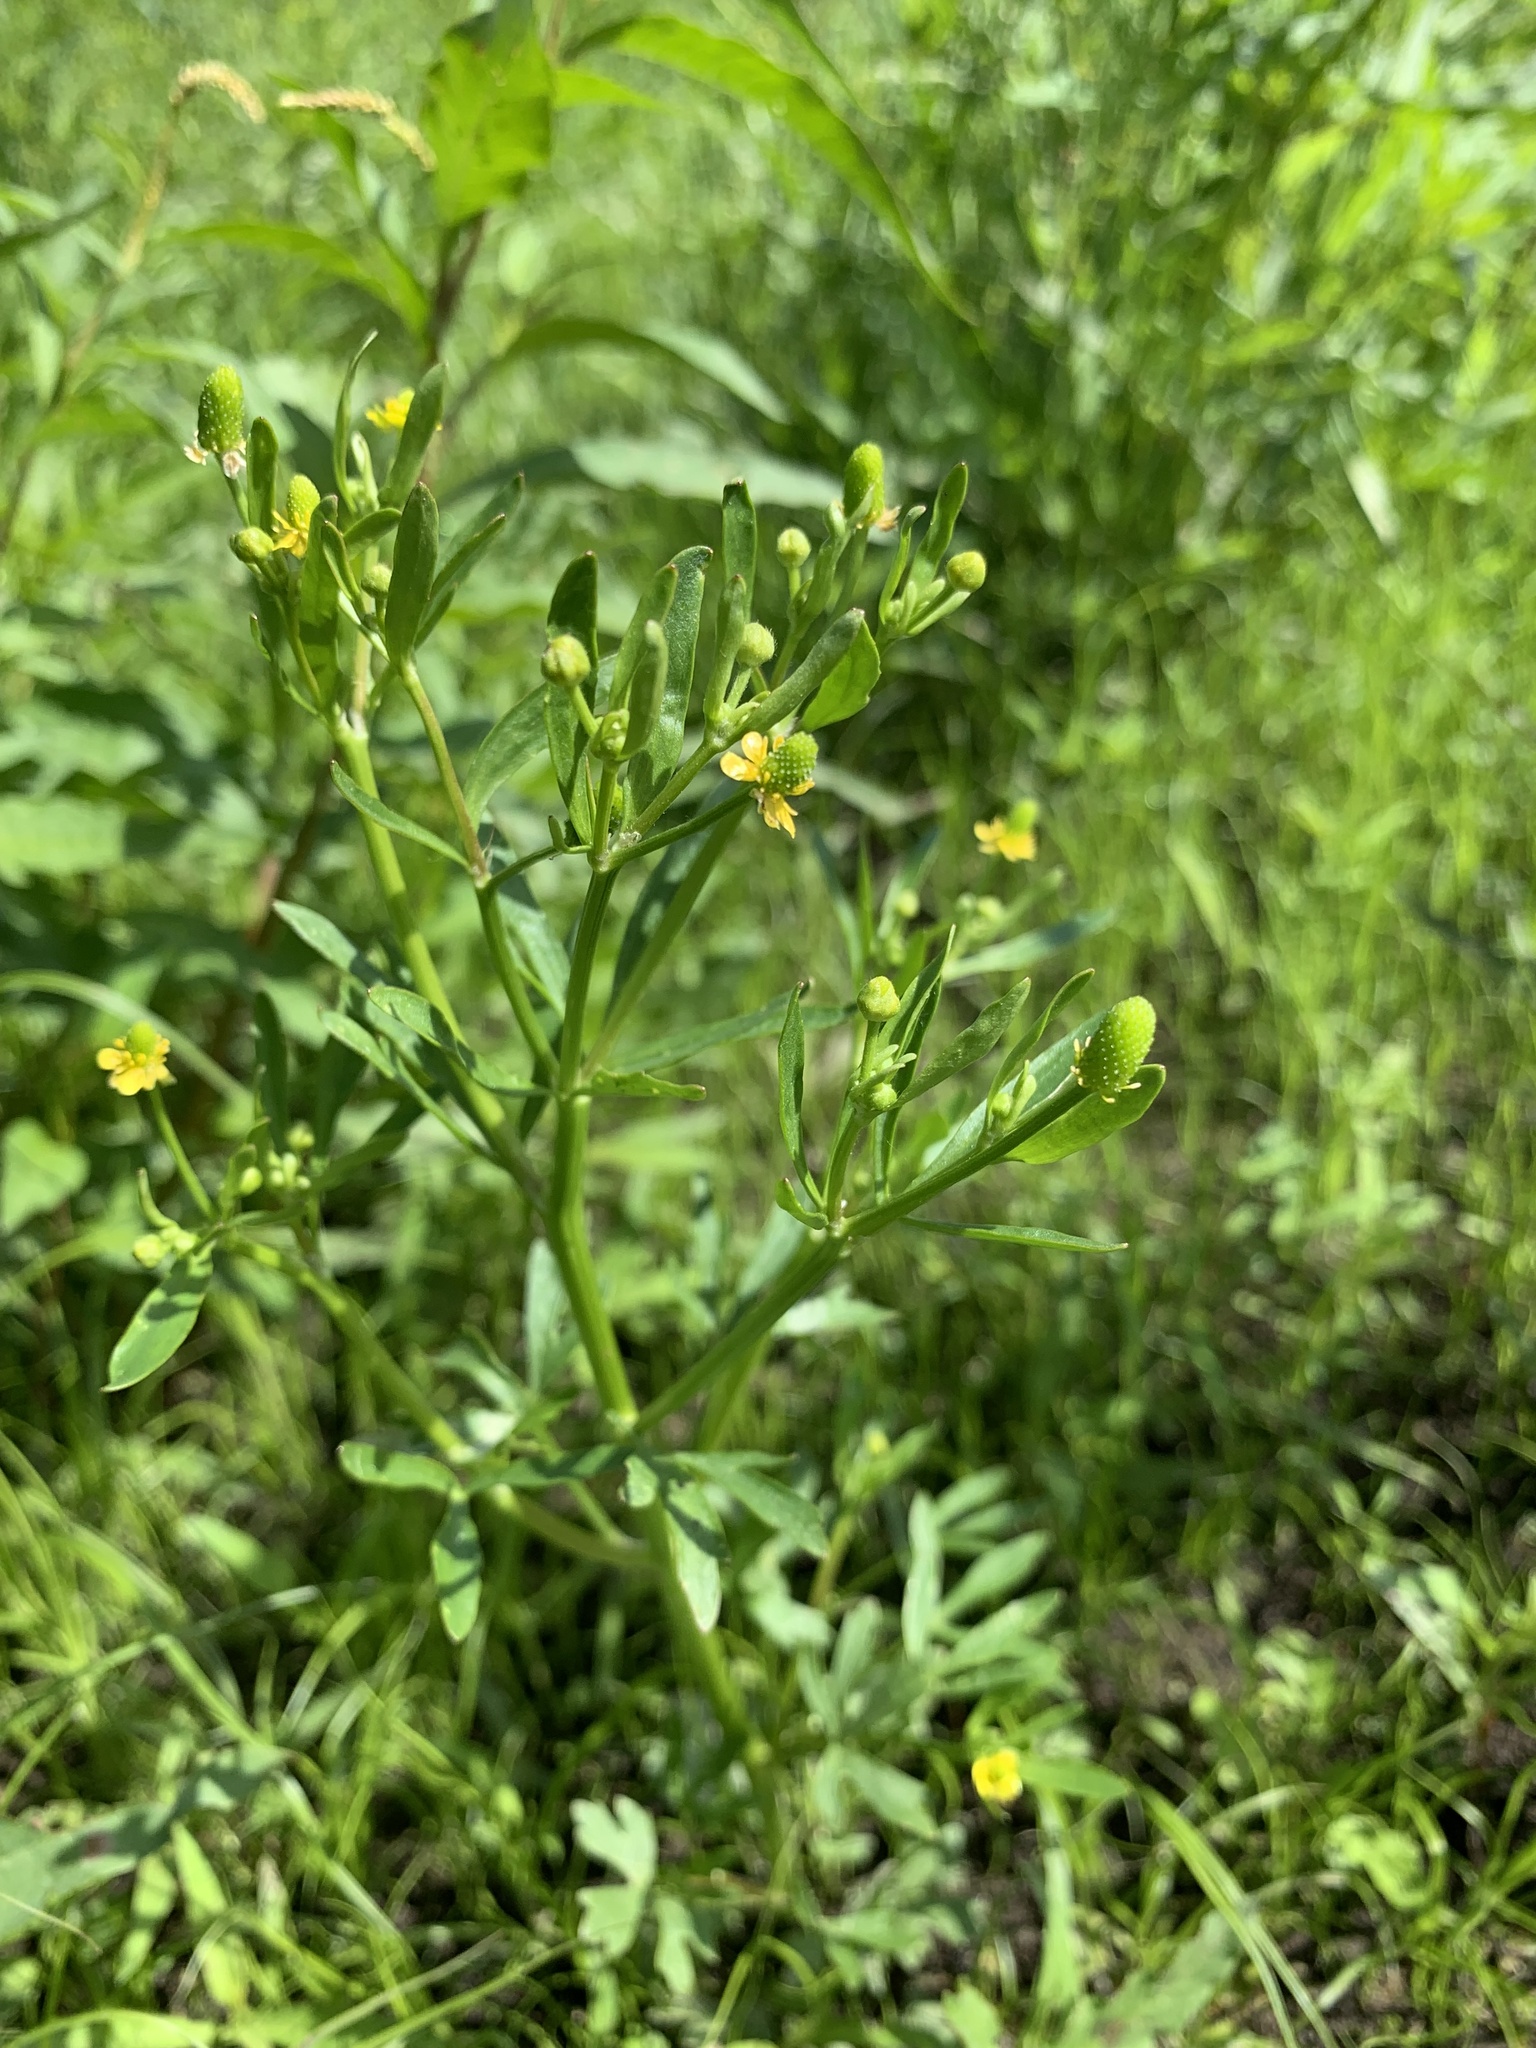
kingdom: Plantae
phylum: Tracheophyta
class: Magnoliopsida
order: Ranunculales
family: Ranunculaceae
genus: Ranunculus
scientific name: Ranunculus sceleratus
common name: Celery-leaved buttercup
